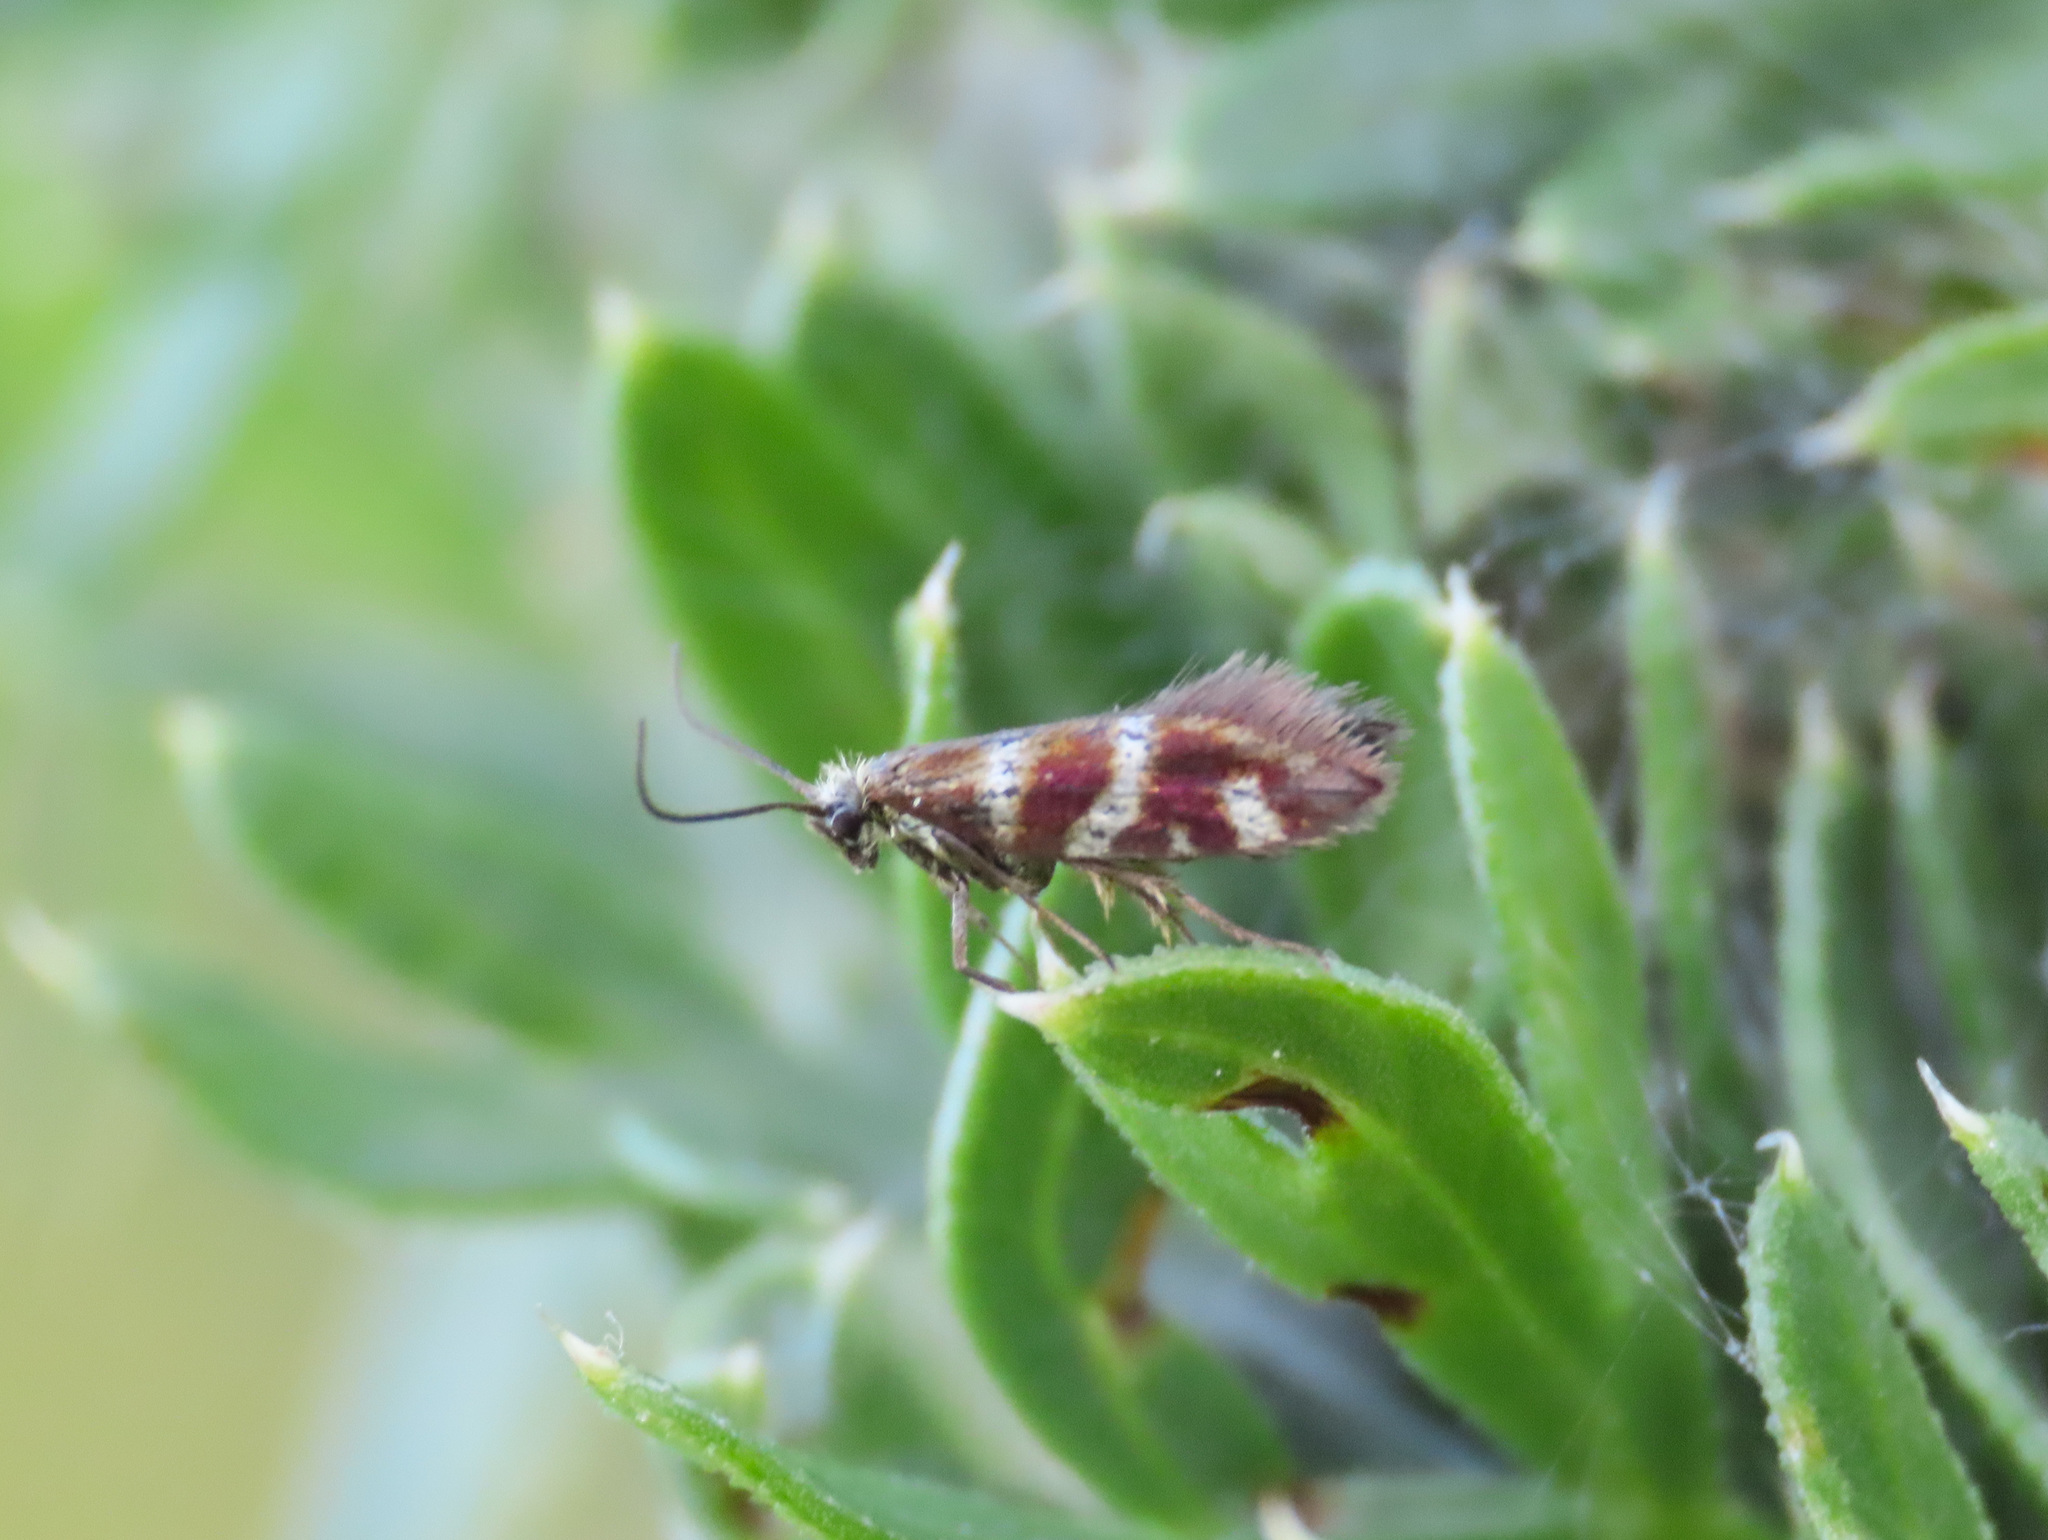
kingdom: Animalia
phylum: Arthropoda
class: Insecta
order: Lepidoptera
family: Micropterigidae
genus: Micropterix
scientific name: Micropterix vulturensis
